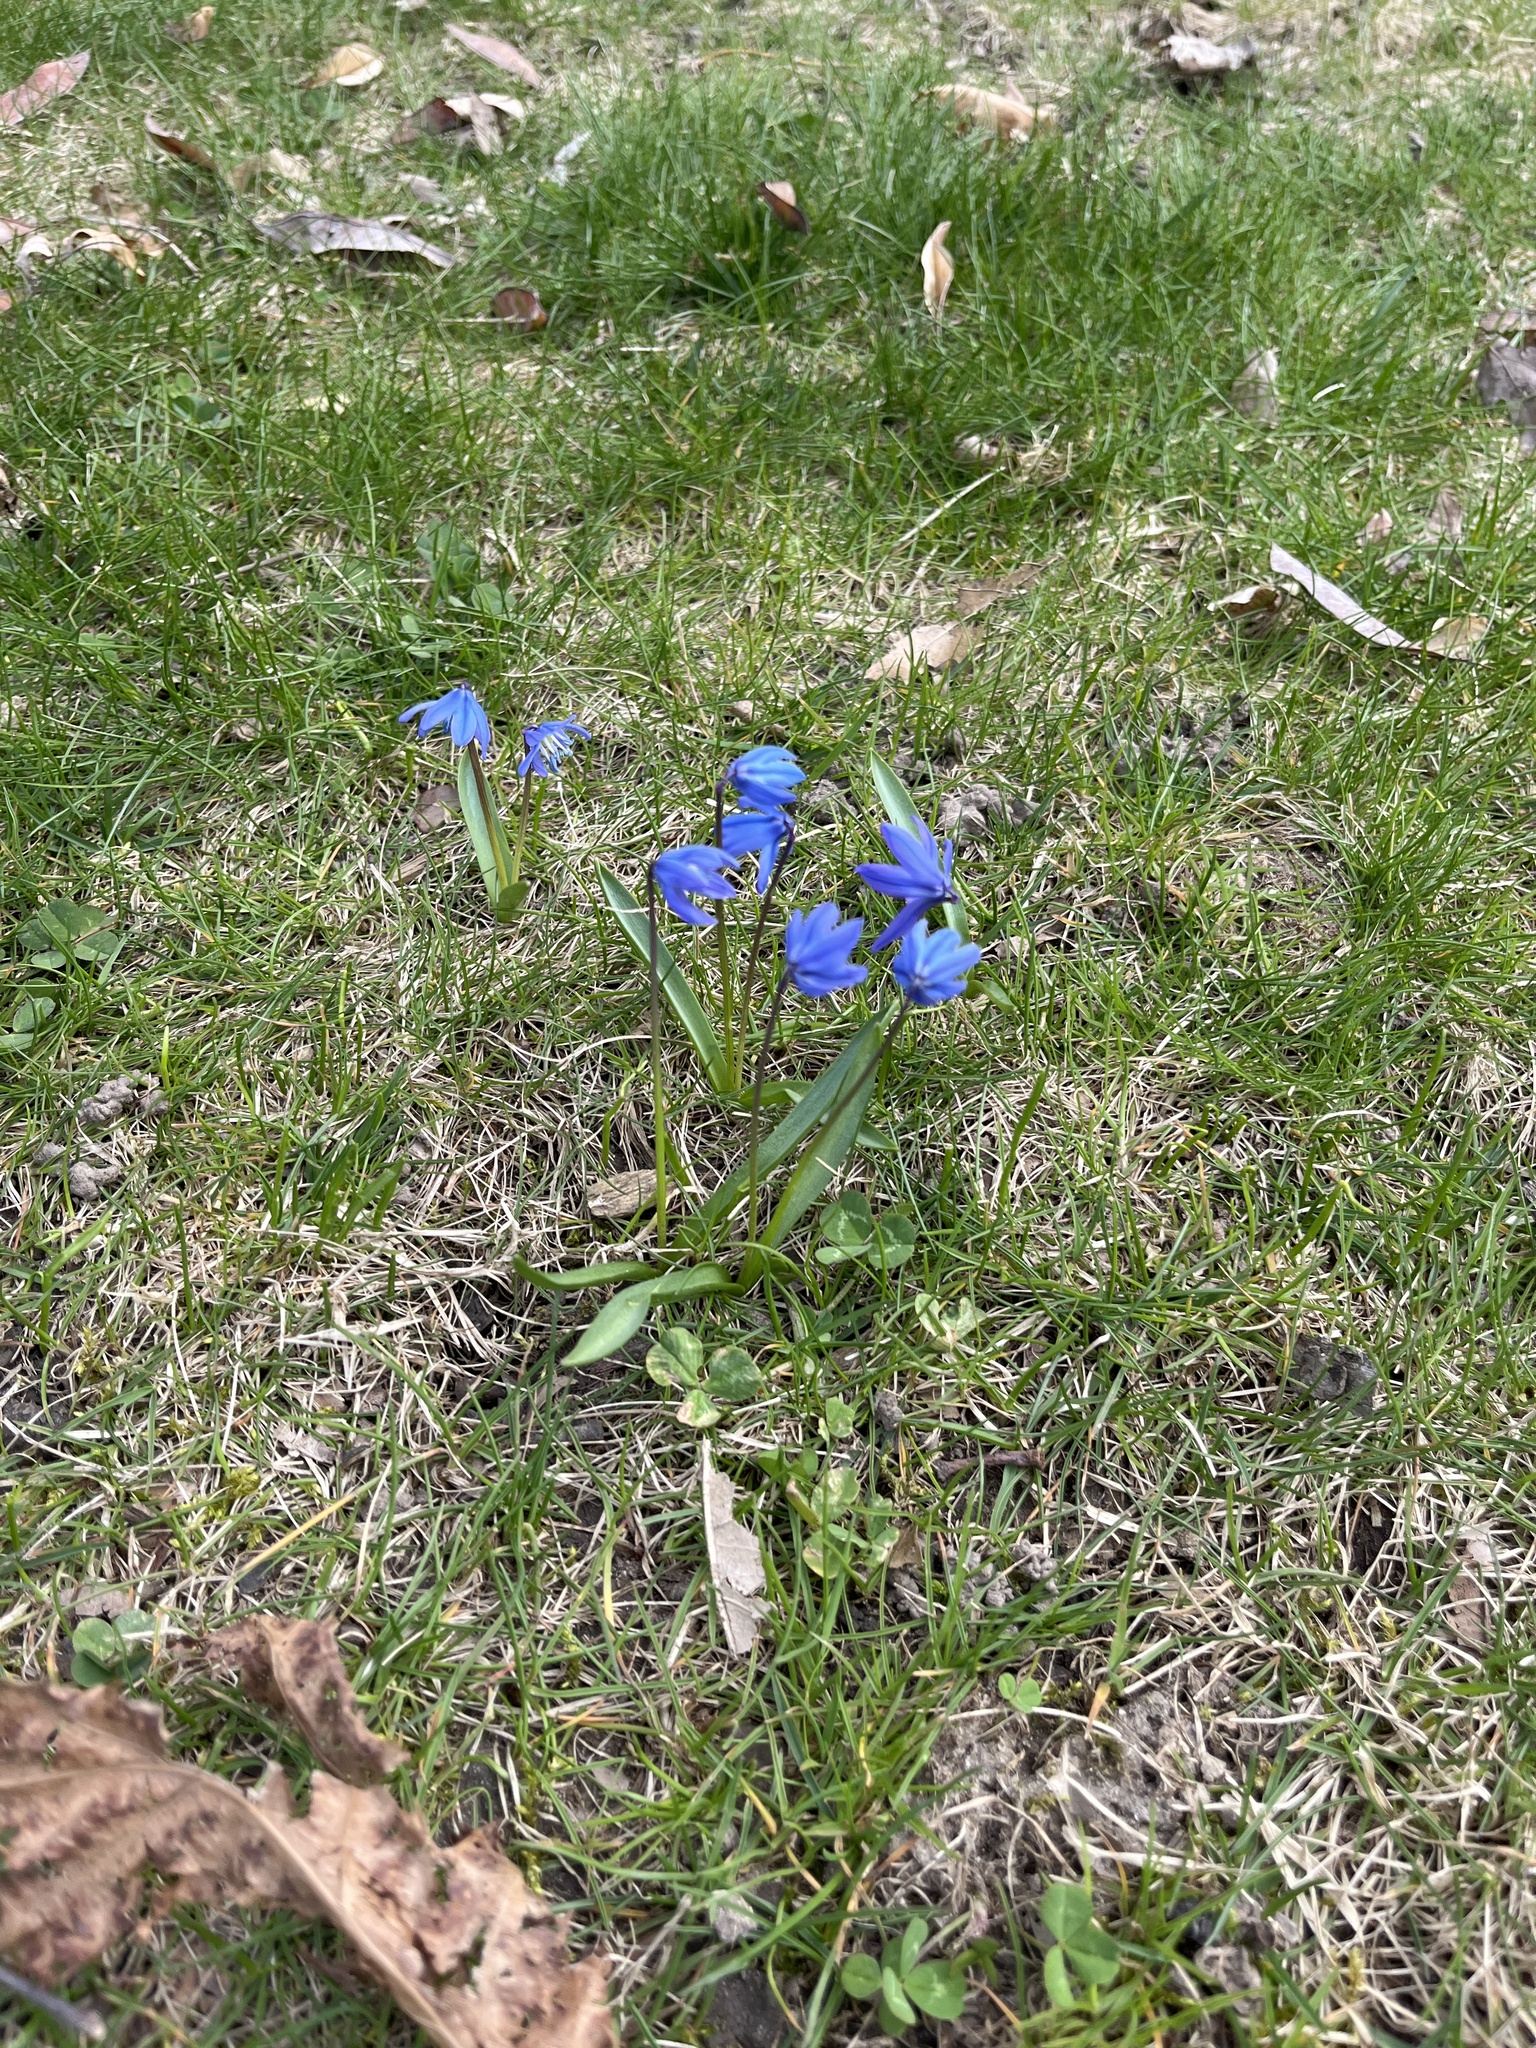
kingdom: Plantae
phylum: Tracheophyta
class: Liliopsida
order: Asparagales
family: Asparagaceae
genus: Scilla
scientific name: Scilla siberica
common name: Siberian squill
